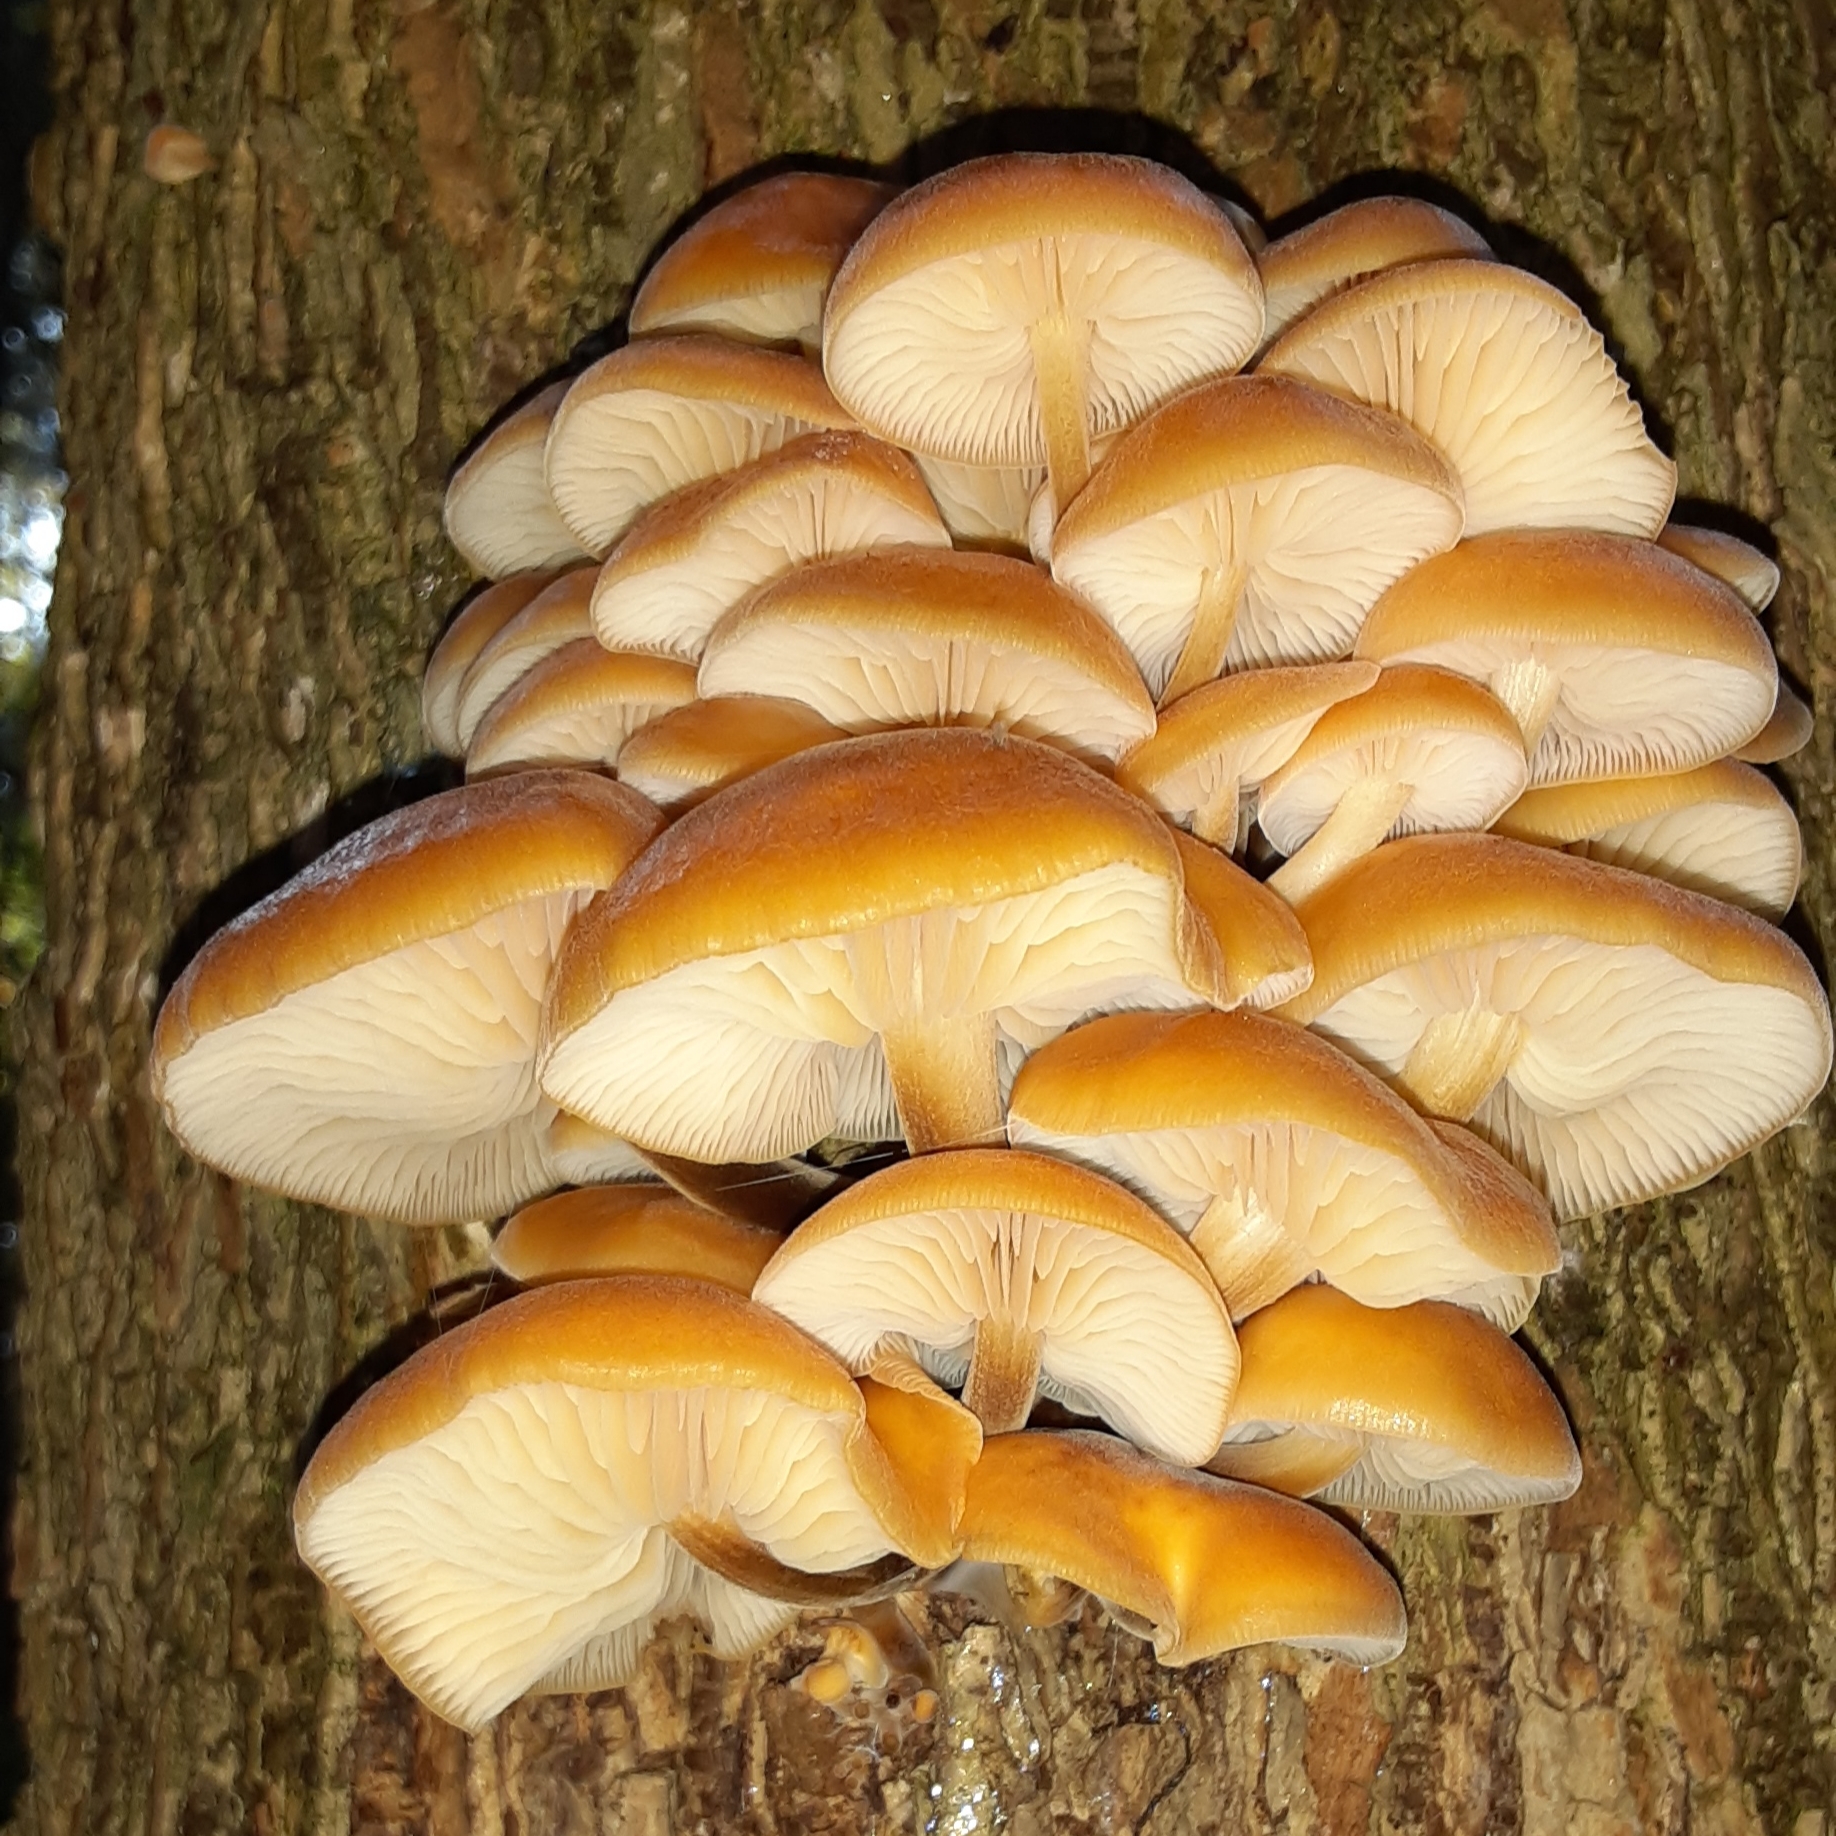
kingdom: Fungi
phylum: Basidiomycota
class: Agaricomycetes
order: Agaricales
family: Physalacriaceae
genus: Flammulina
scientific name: Flammulina velutipes
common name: Velvet shank
